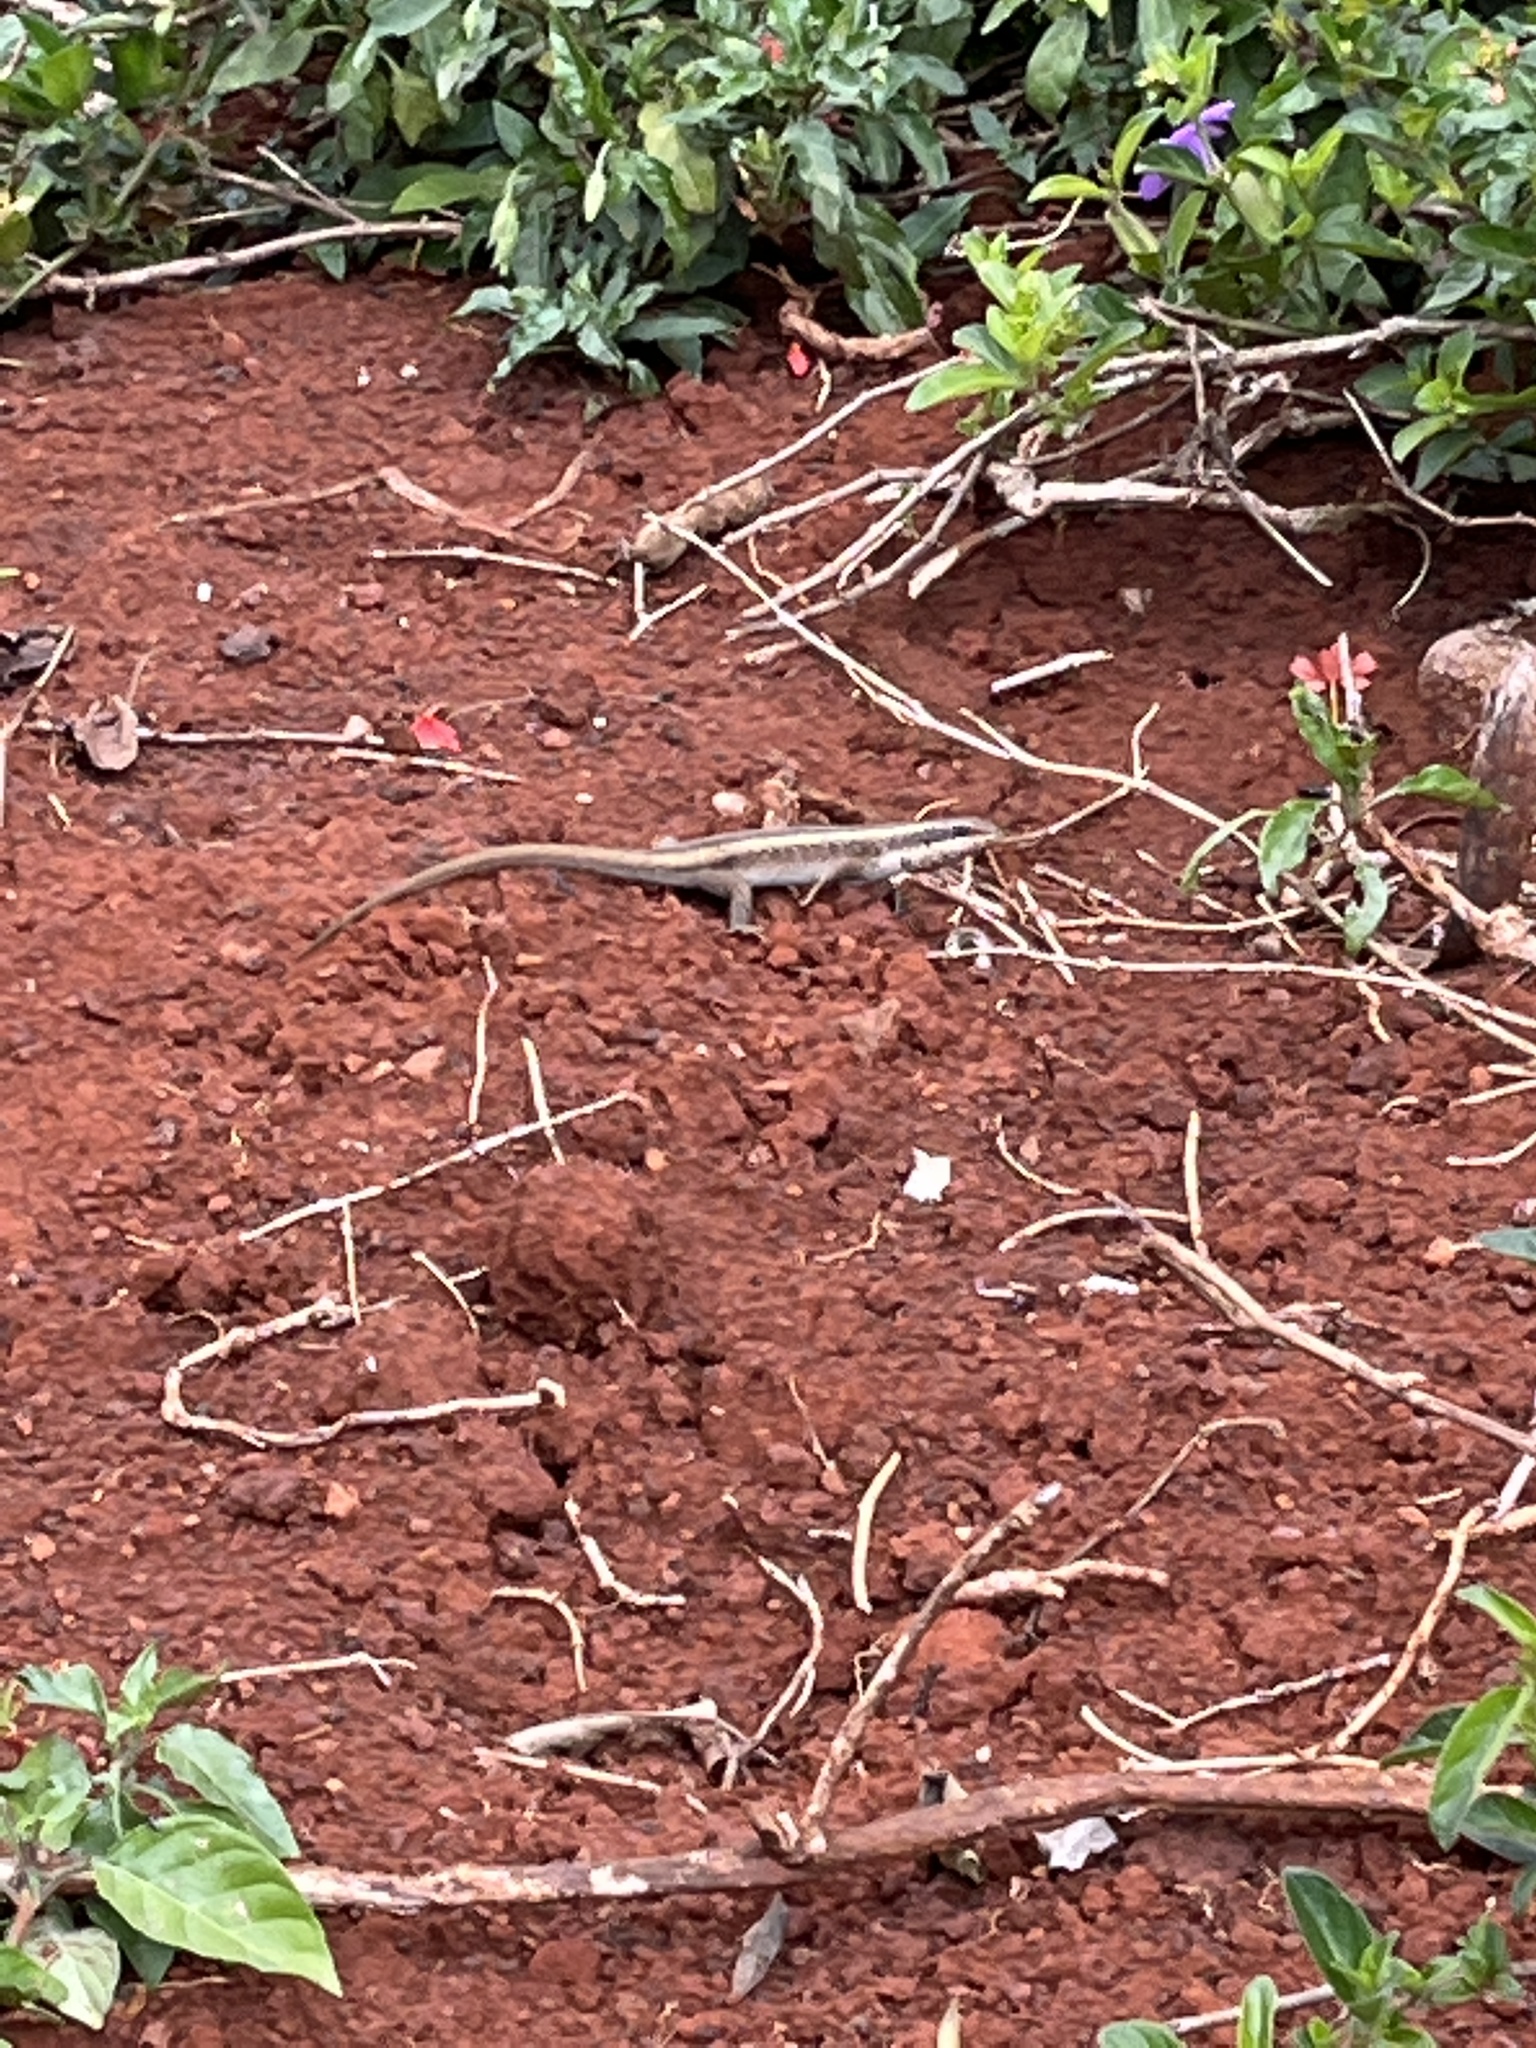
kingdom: Animalia
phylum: Chordata
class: Squamata
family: Scincidae
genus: Trachylepis
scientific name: Trachylepis striata
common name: African striped mabuya
